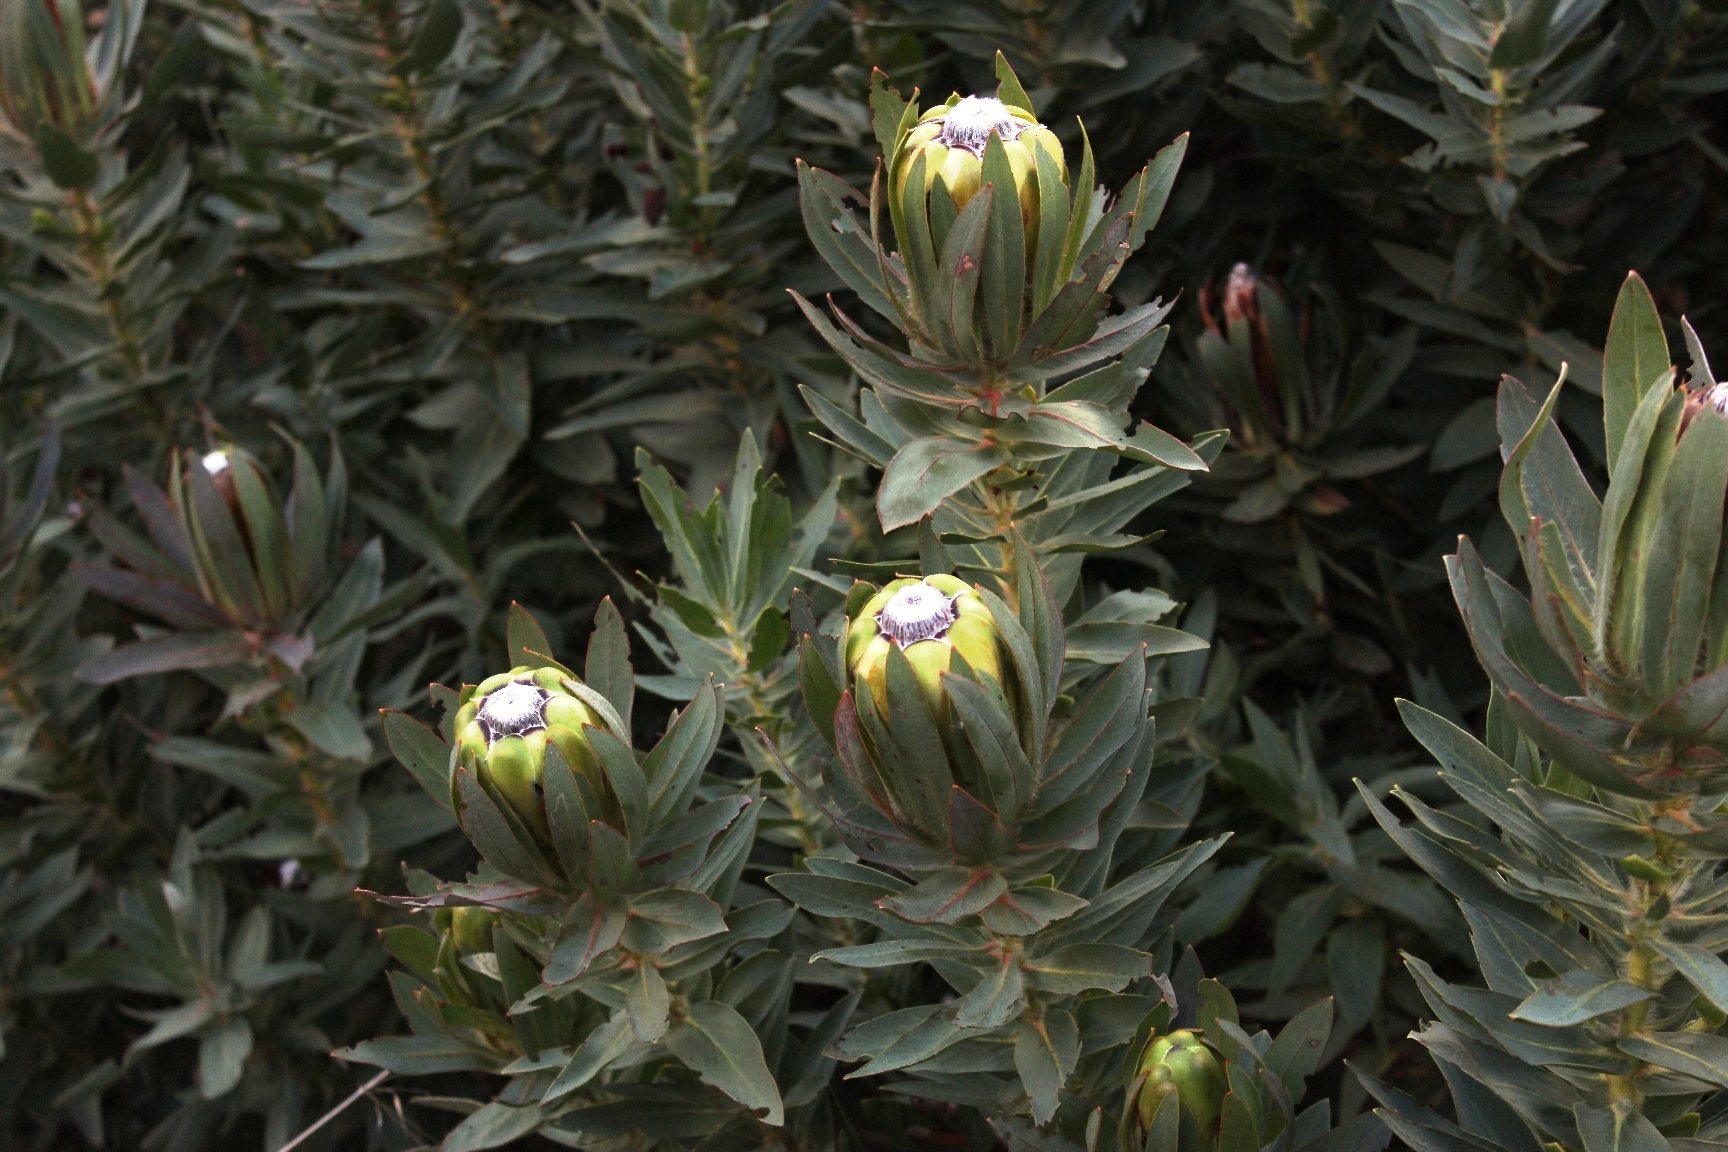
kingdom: Plantae
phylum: Tracheophyta
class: Magnoliopsida
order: Proteales
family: Proteaceae
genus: Protea
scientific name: Protea coronata
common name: Green sugarbush
